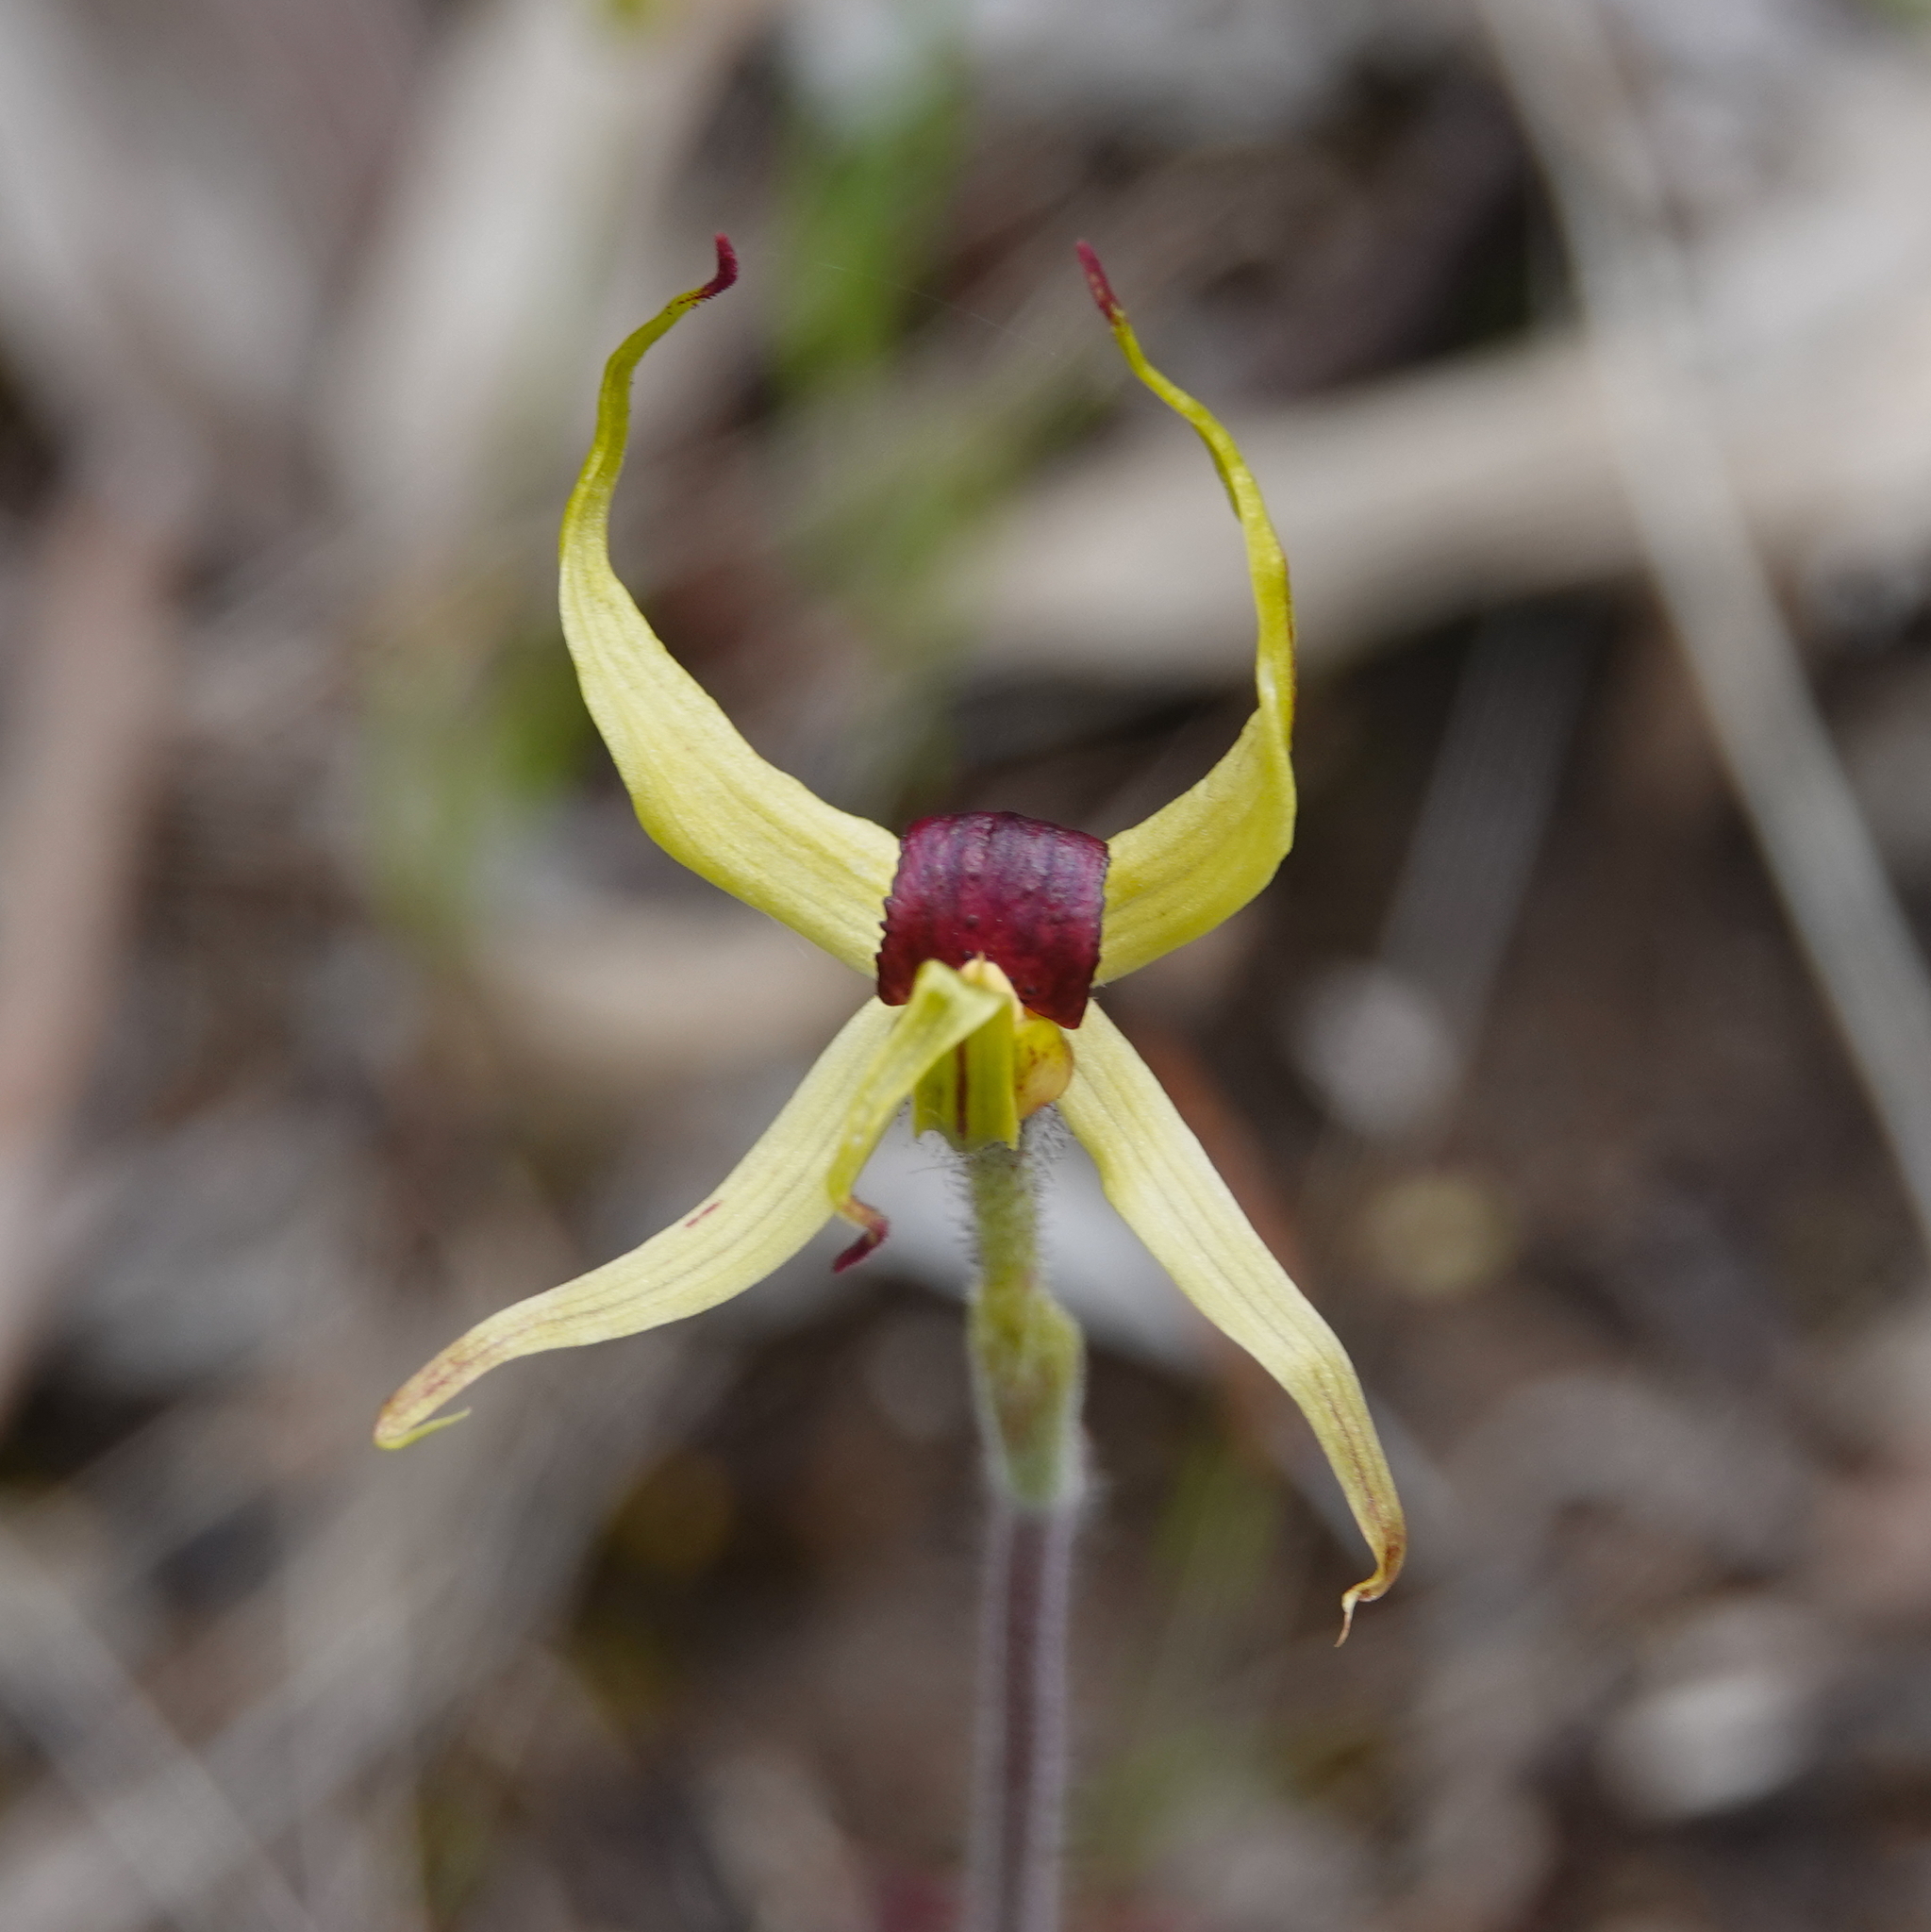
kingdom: Plantae
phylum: Tracheophyta
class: Liliopsida
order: Asparagales
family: Orchidaceae
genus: Caladenia
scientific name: Caladenia leptochila
